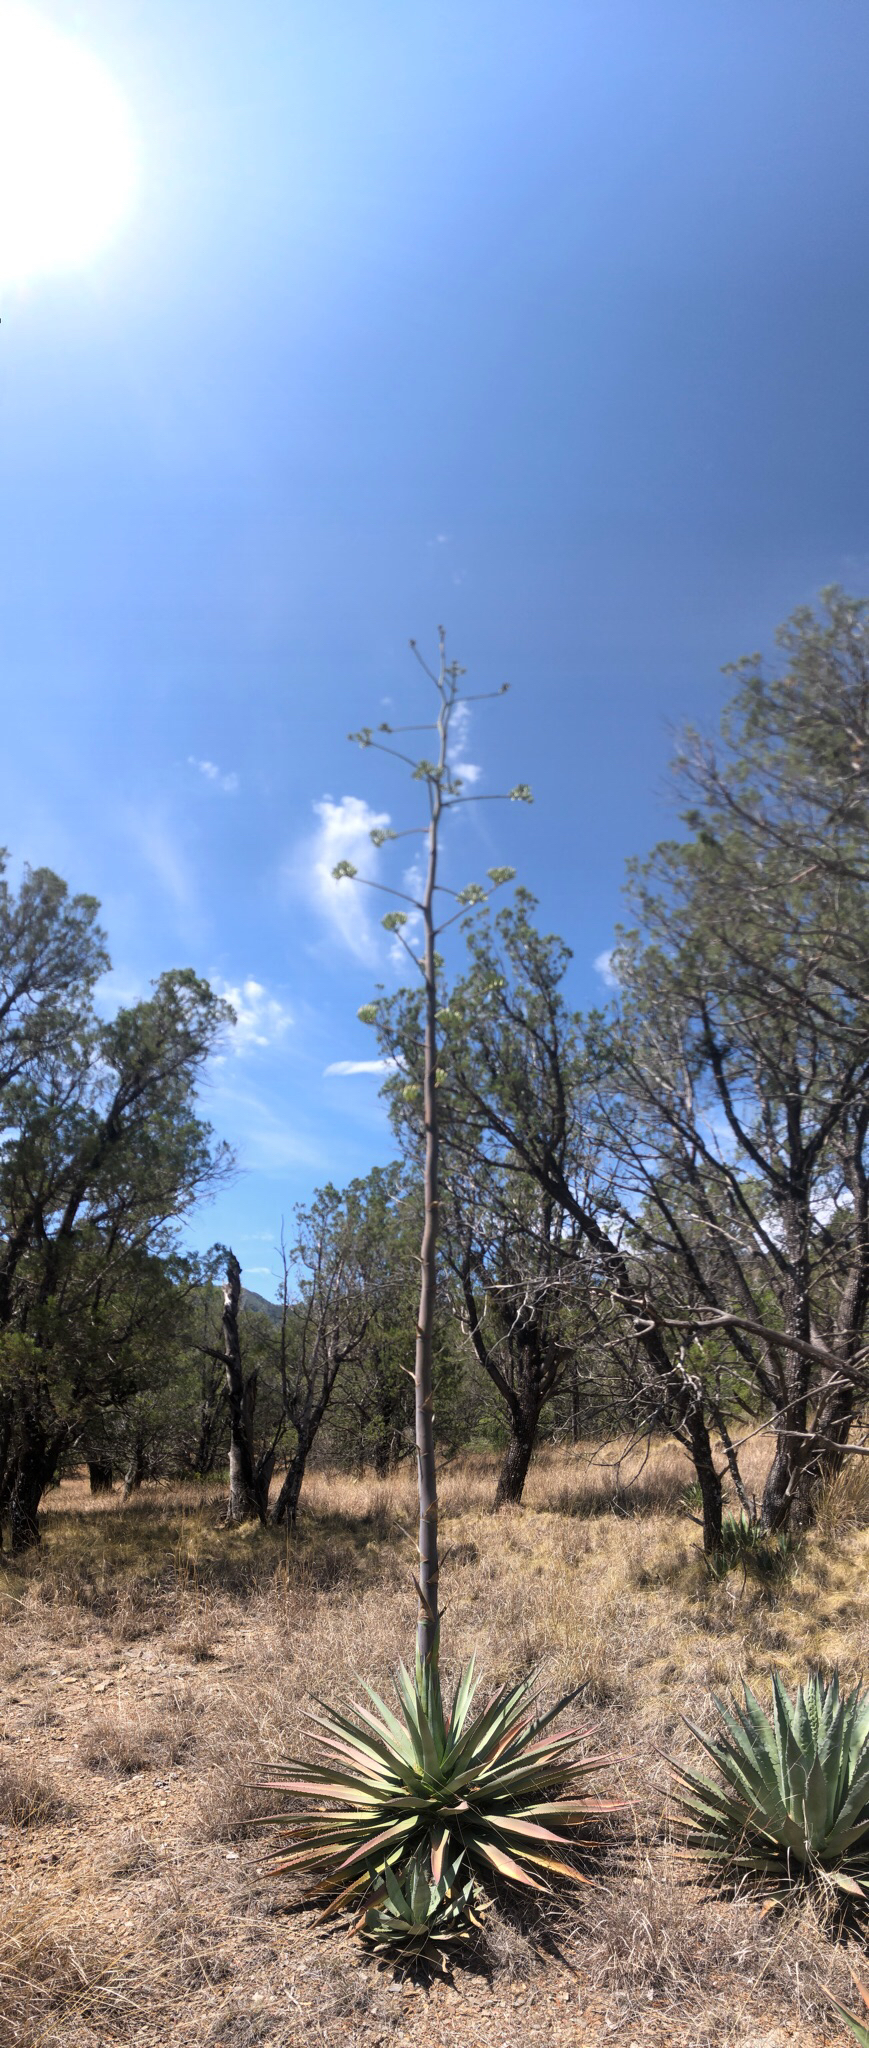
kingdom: Plantae
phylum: Tracheophyta
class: Liliopsida
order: Asparagales
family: Asparagaceae
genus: Agave
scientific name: Agave palmeri
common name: Palmer agave
